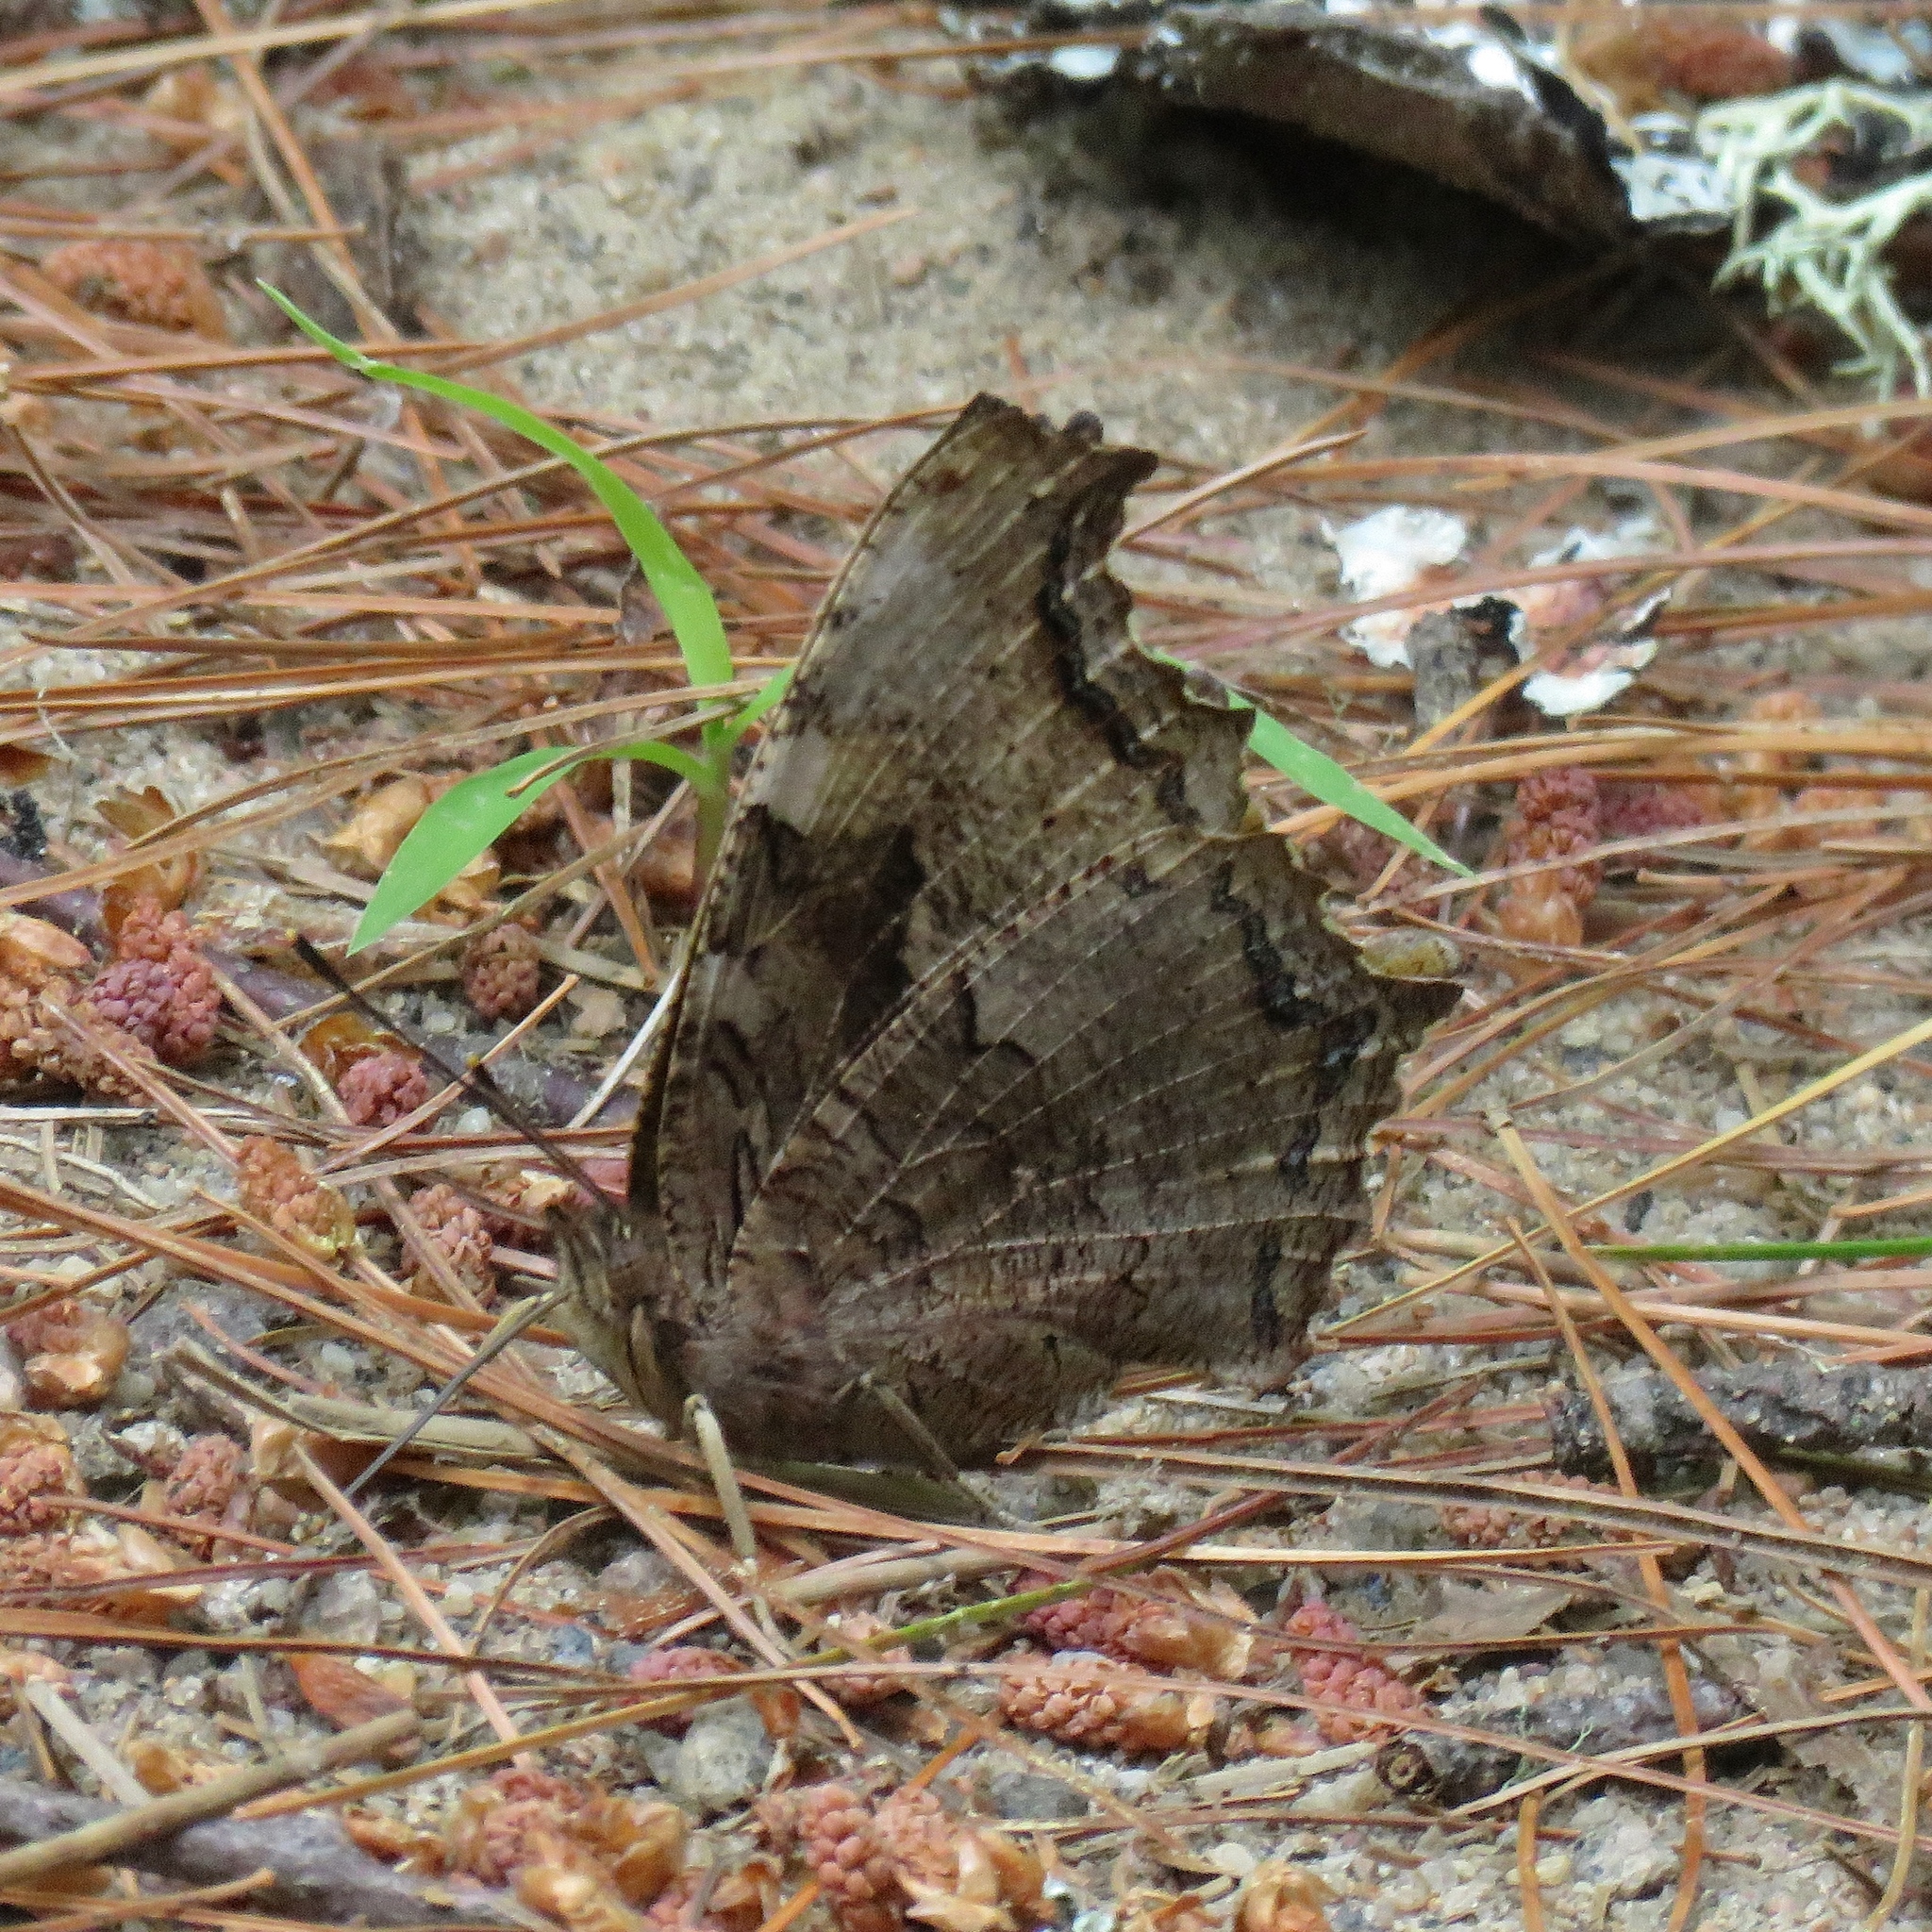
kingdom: Animalia
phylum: Arthropoda
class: Insecta
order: Lepidoptera
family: Nymphalidae
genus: Polygonia
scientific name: Polygonia vaualbum
